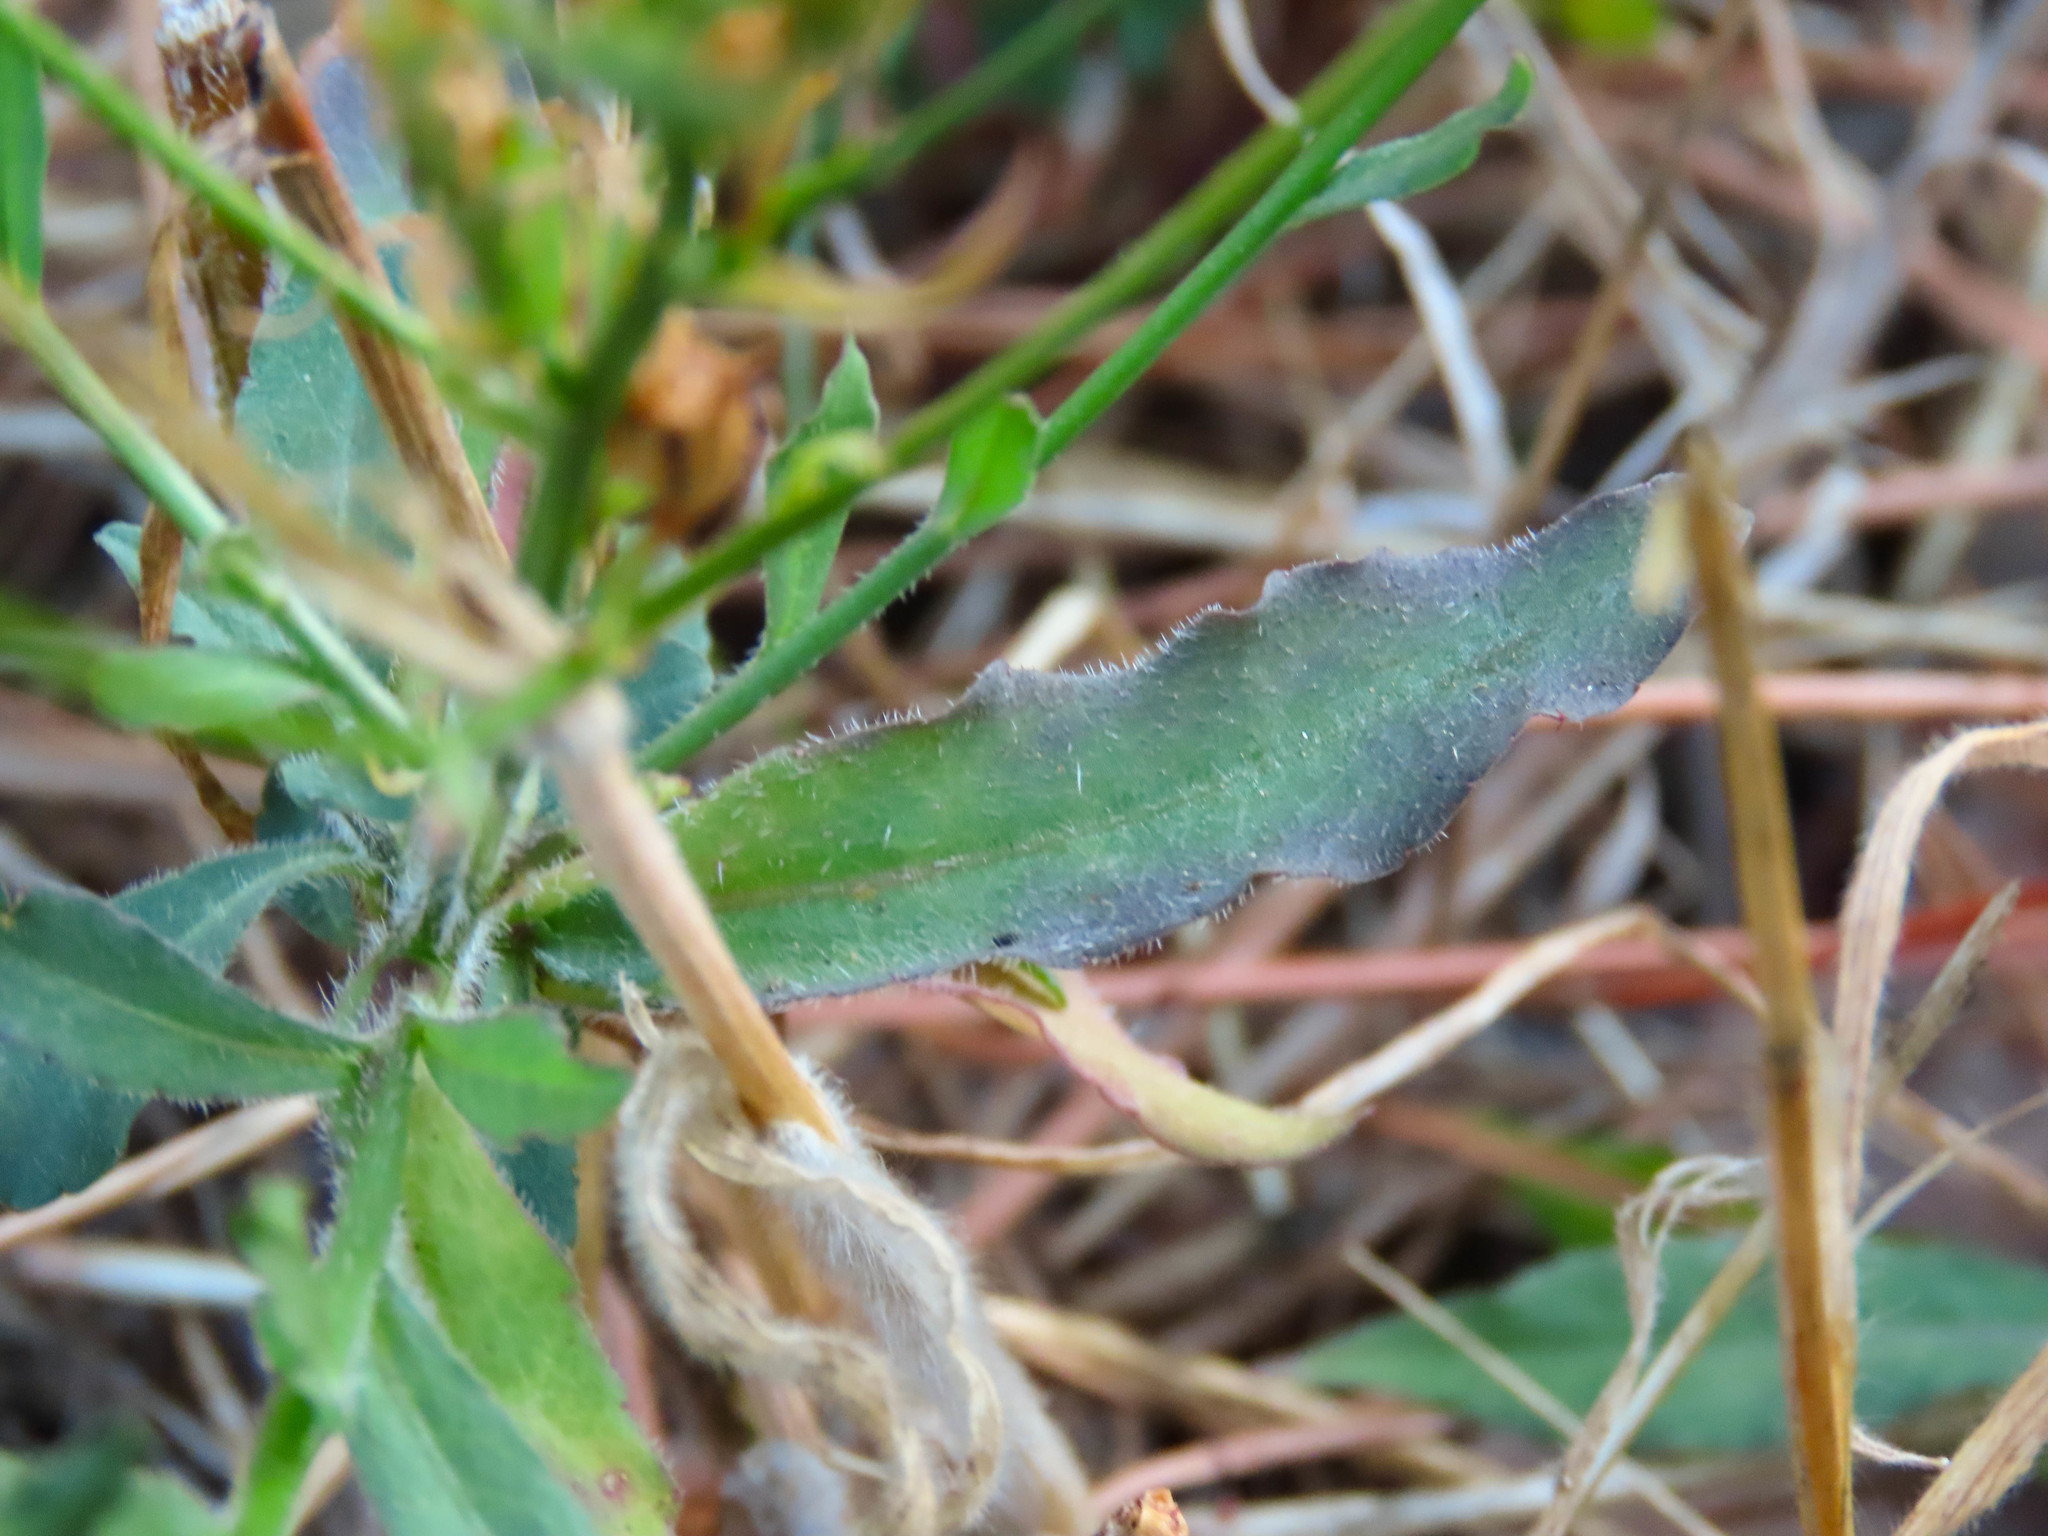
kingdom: Plantae
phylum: Tracheophyta
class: Magnoliopsida
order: Asterales
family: Campanulaceae
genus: Campanula
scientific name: Campanula rapunculus
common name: Rampion bellflower
